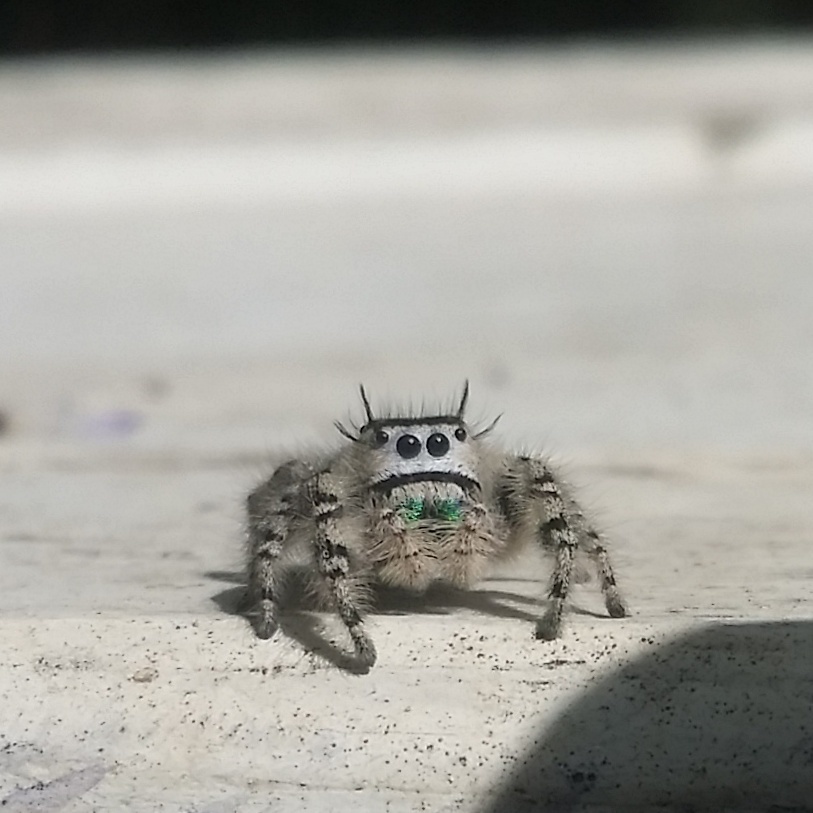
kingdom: Animalia
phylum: Arthropoda
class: Arachnida
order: Araneae
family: Salticidae
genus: Phidippus
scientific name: Phidippus otiosus
